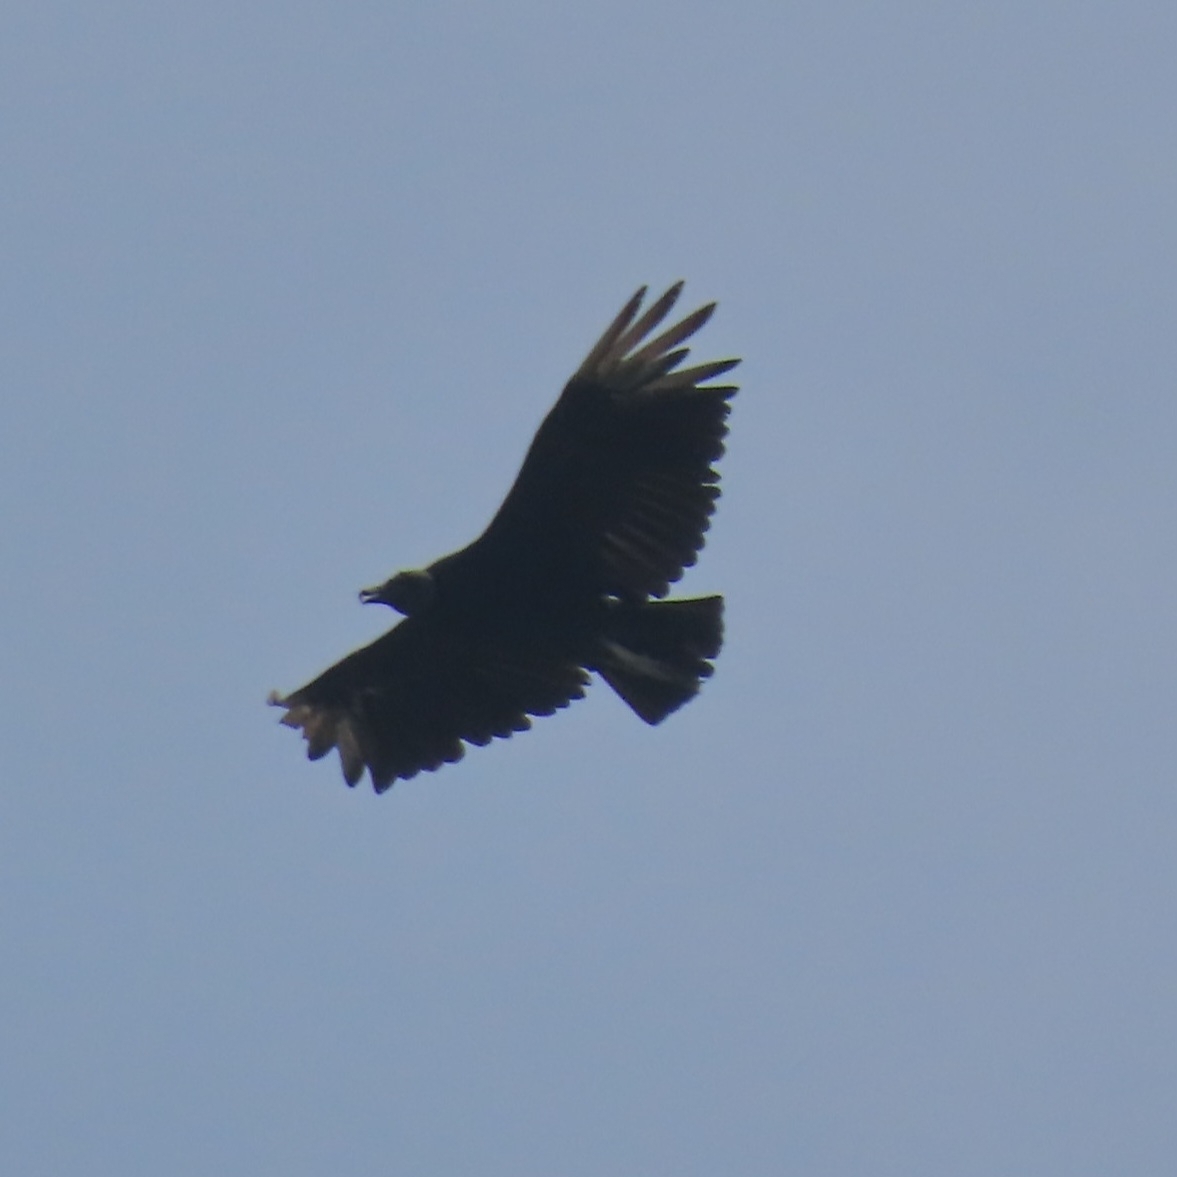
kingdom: Animalia
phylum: Chordata
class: Aves
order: Accipitriformes
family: Cathartidae
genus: Coragyps
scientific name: Coragyps atratus
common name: Black vulture
